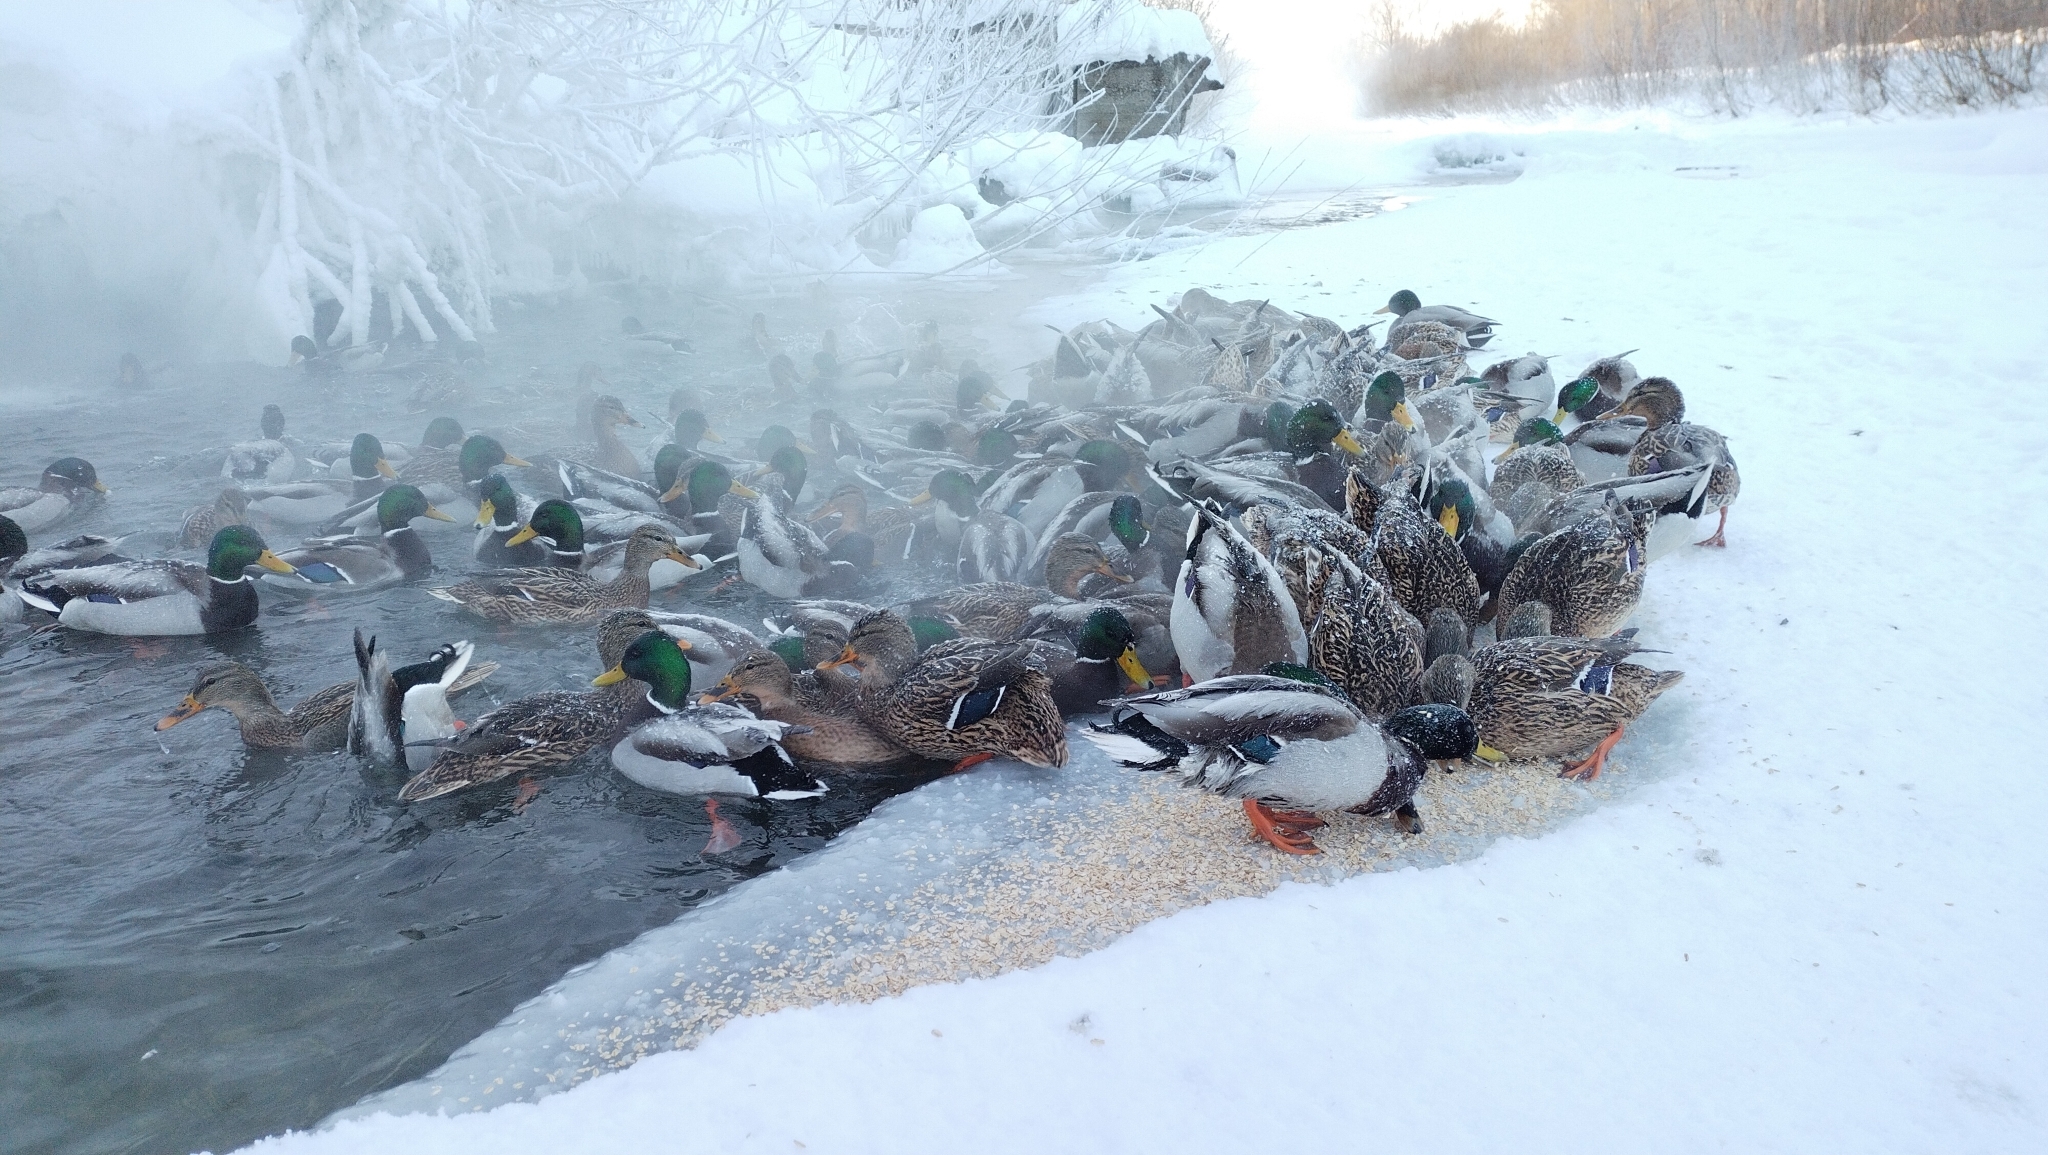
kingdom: Animalia
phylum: Chordata
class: Aves
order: Anseriformes
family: Anatidae
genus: Anas
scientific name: Anas platyrhynchos
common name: Mallard
